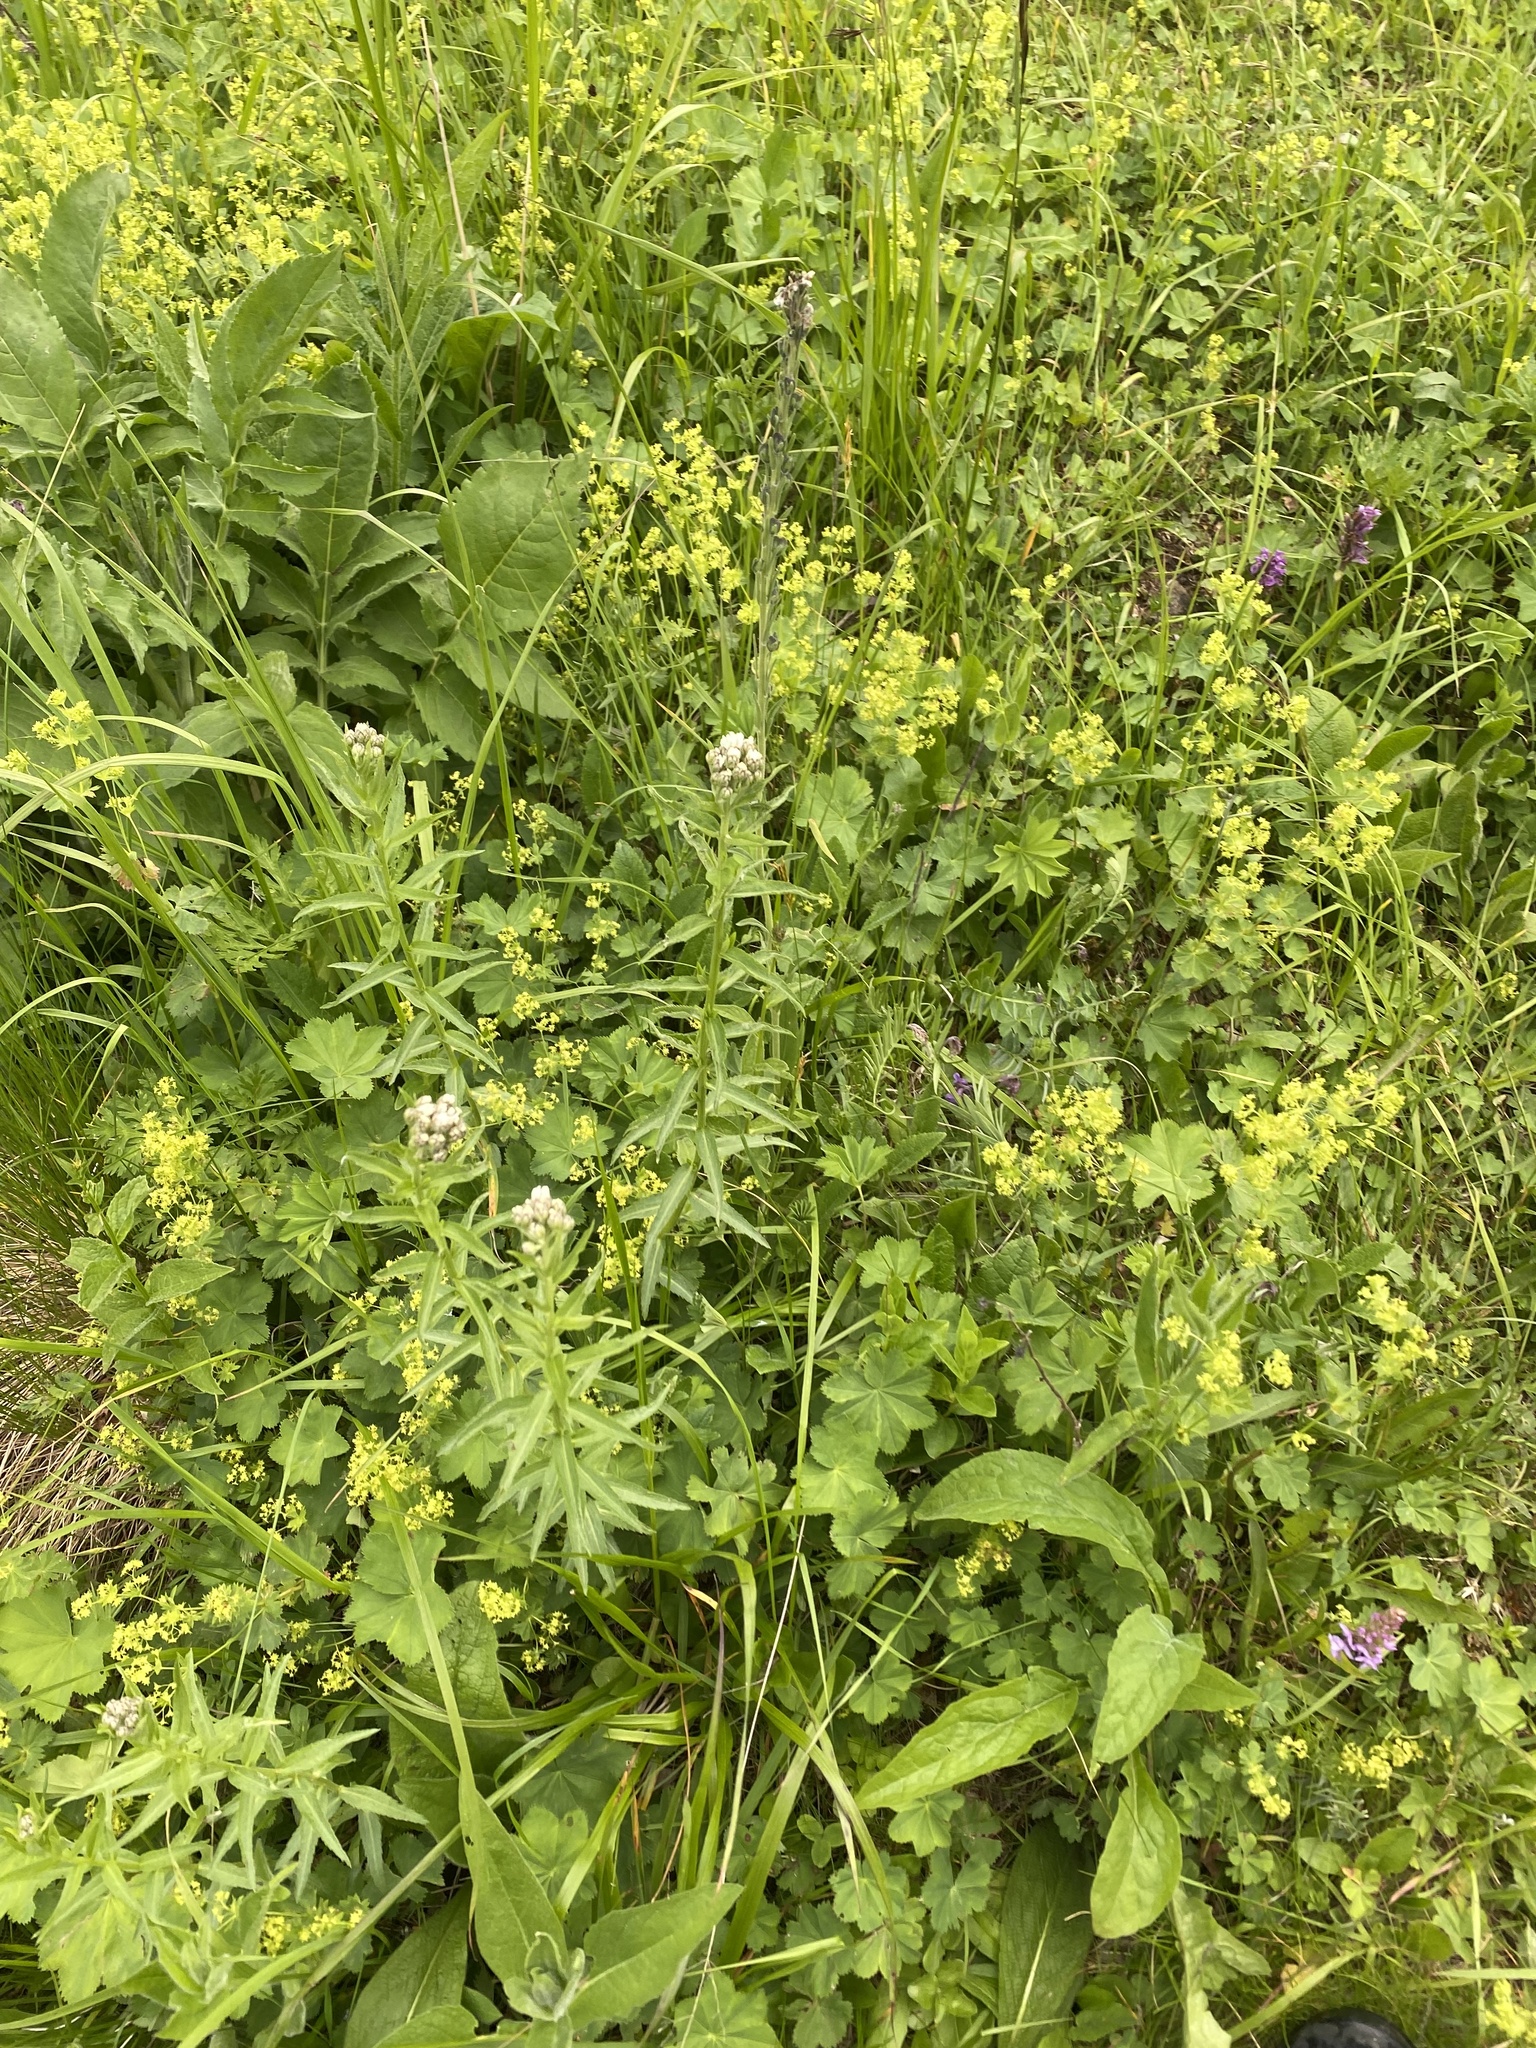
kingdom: Plantae
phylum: Tracheophyta
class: Magnoliopsida
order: Asterales
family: Asteraceae
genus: Achillea
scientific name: Achillea biserrata
